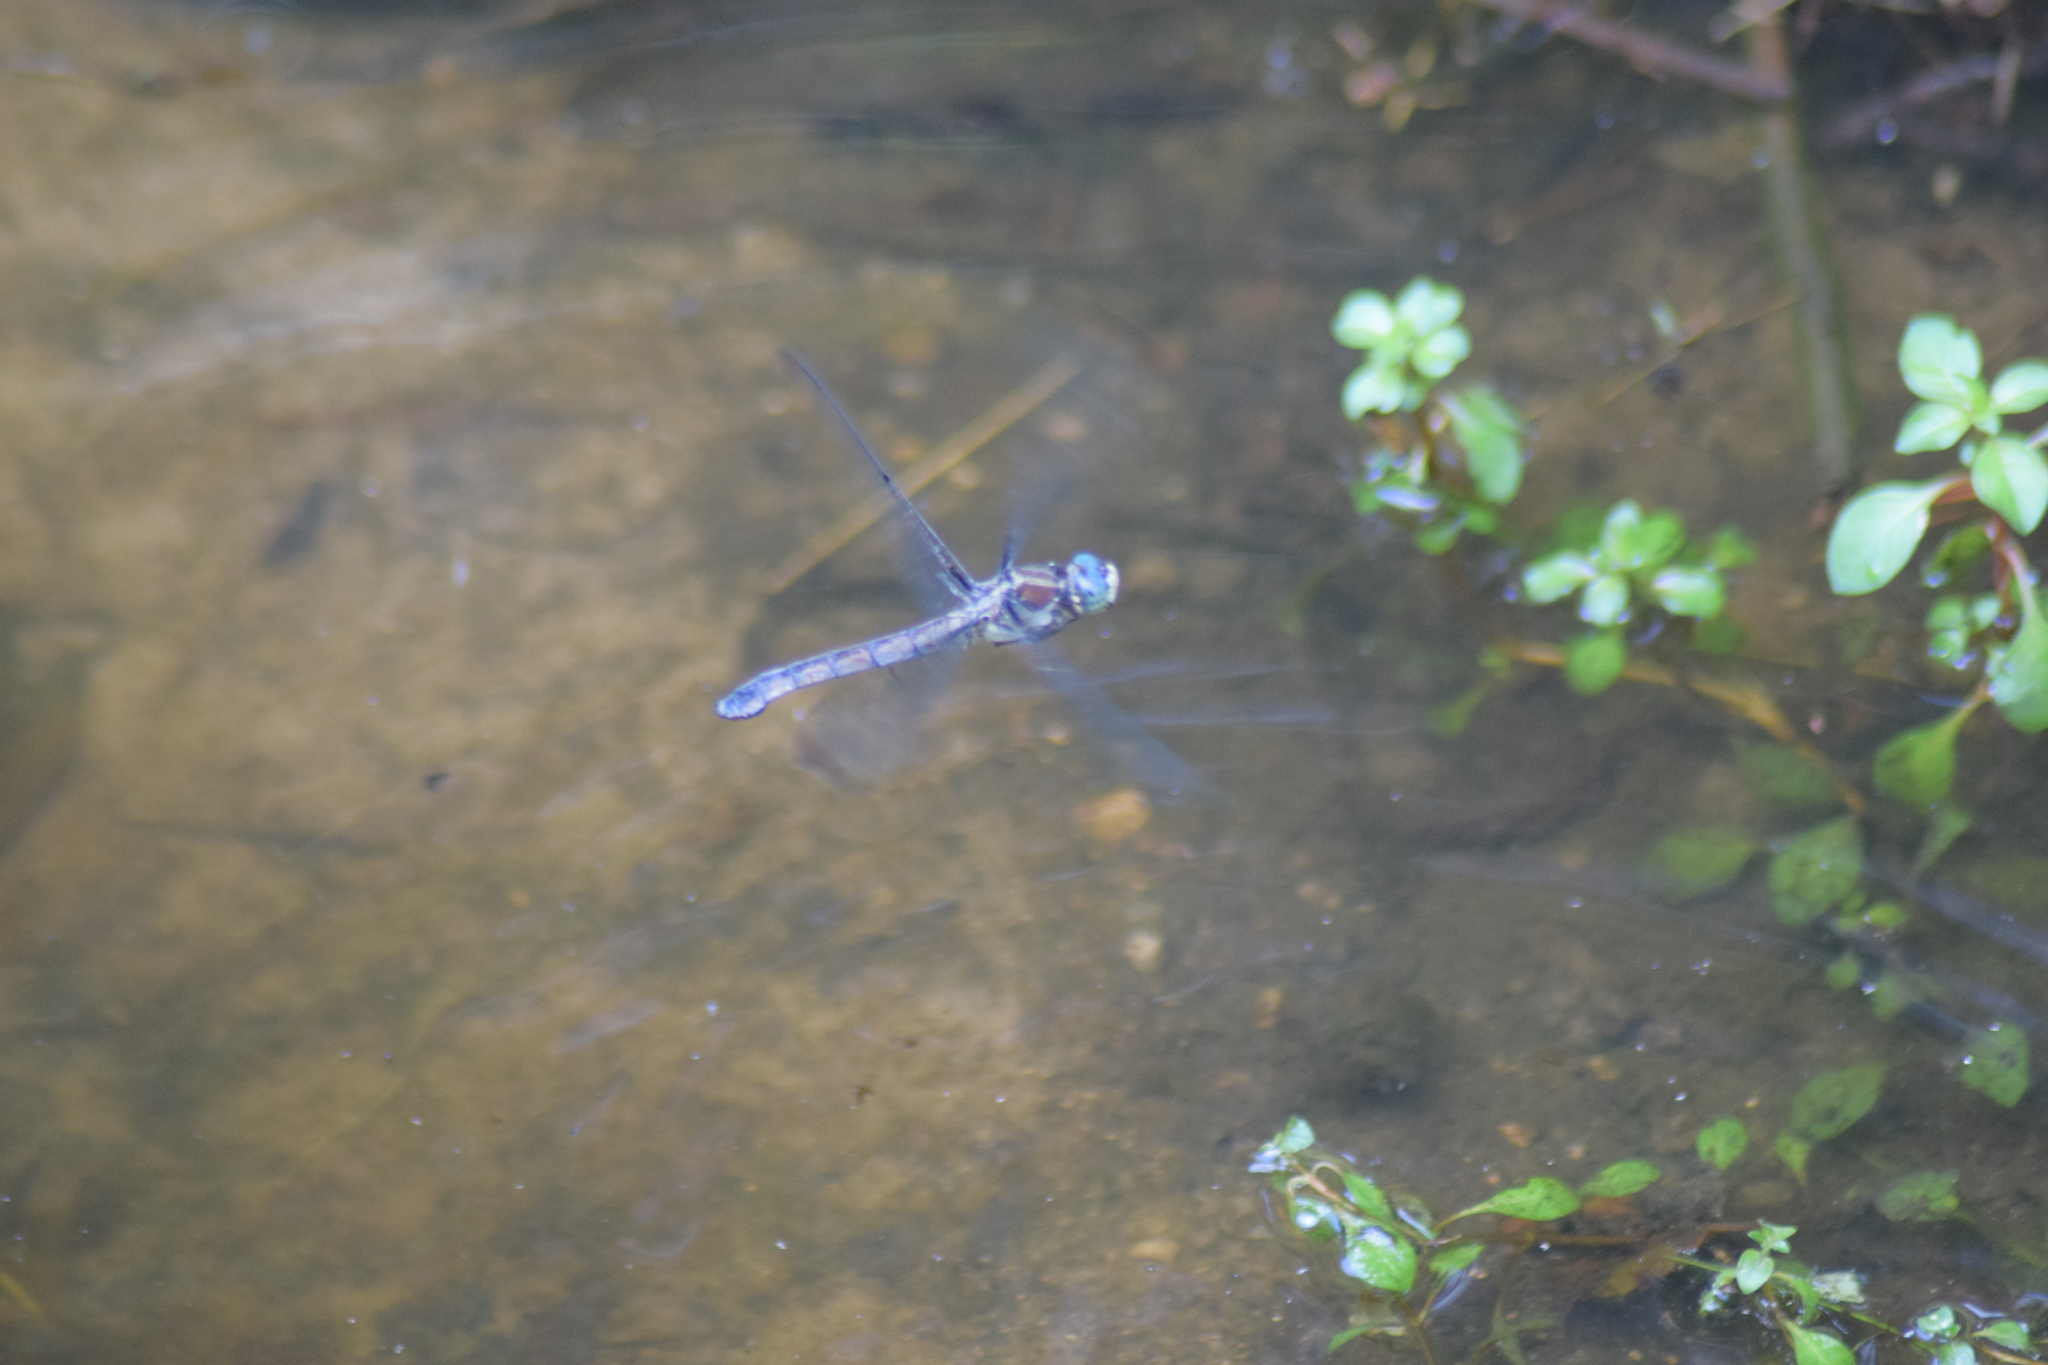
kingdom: Animalia
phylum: Arthropoda
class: Insecta
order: Odonata
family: Libellulidae
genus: Libellula
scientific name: Libellula vibrans
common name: Great blue skimmer
